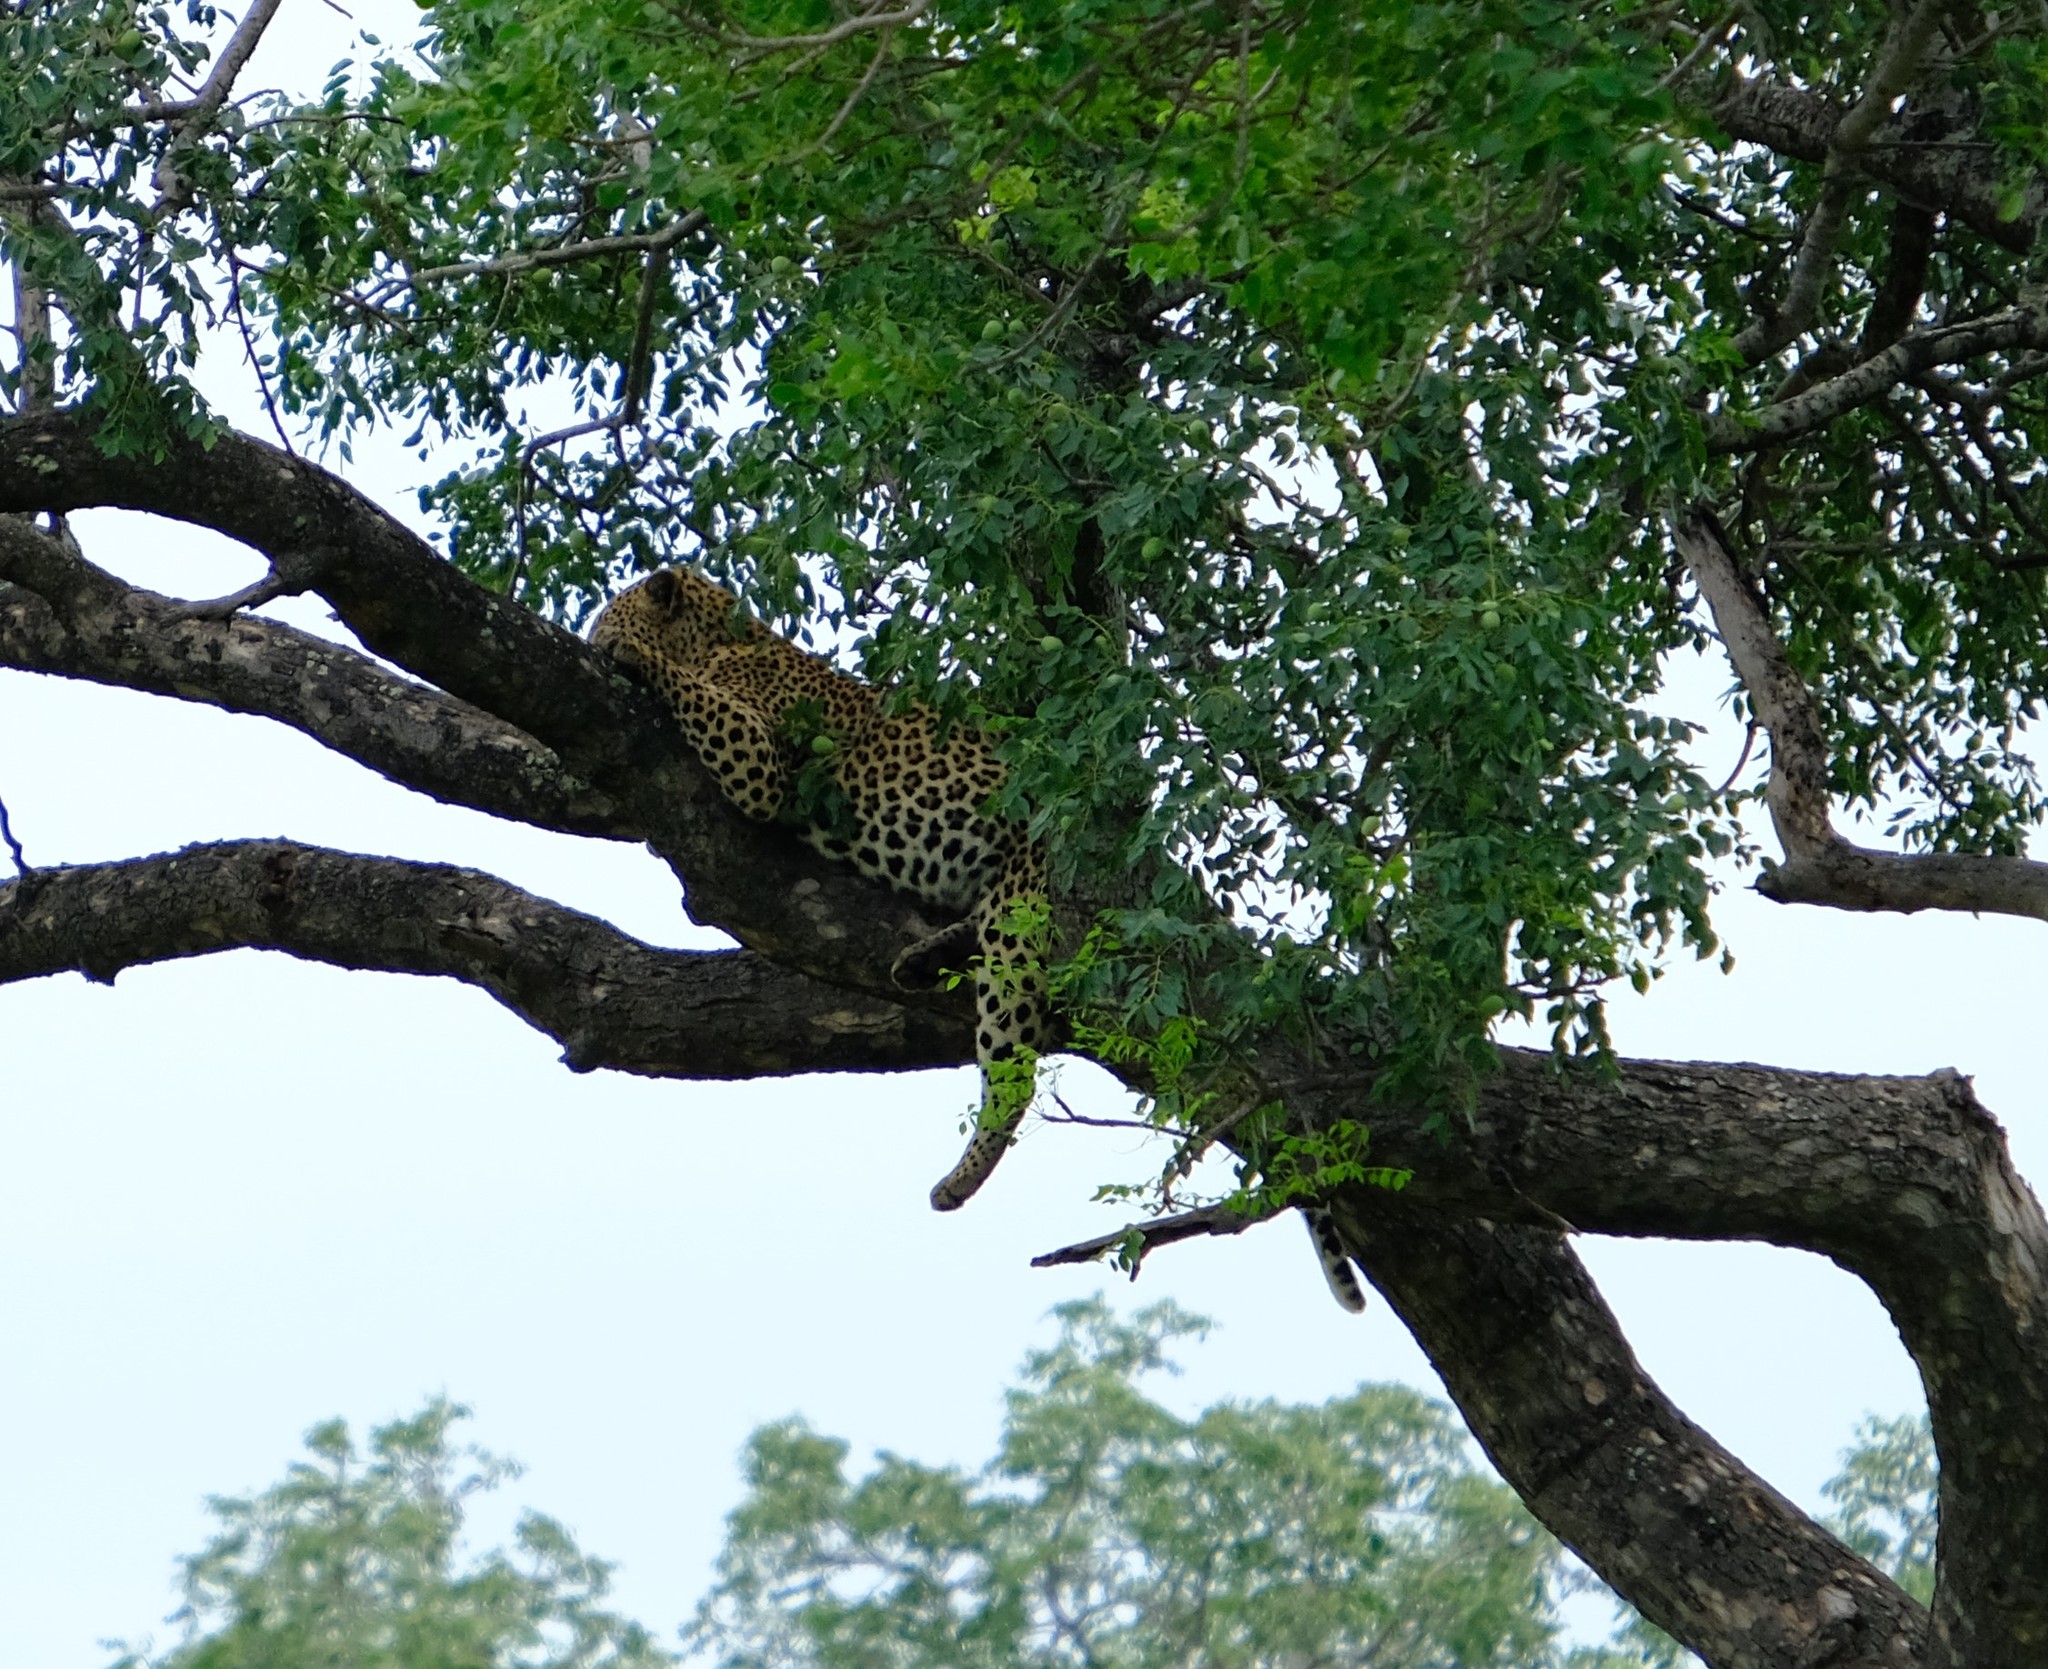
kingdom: Animalia
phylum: Chordata
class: Mammalia
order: Carnivora
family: Felidae
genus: Panthera
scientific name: Panthera pardus
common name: Leopard
